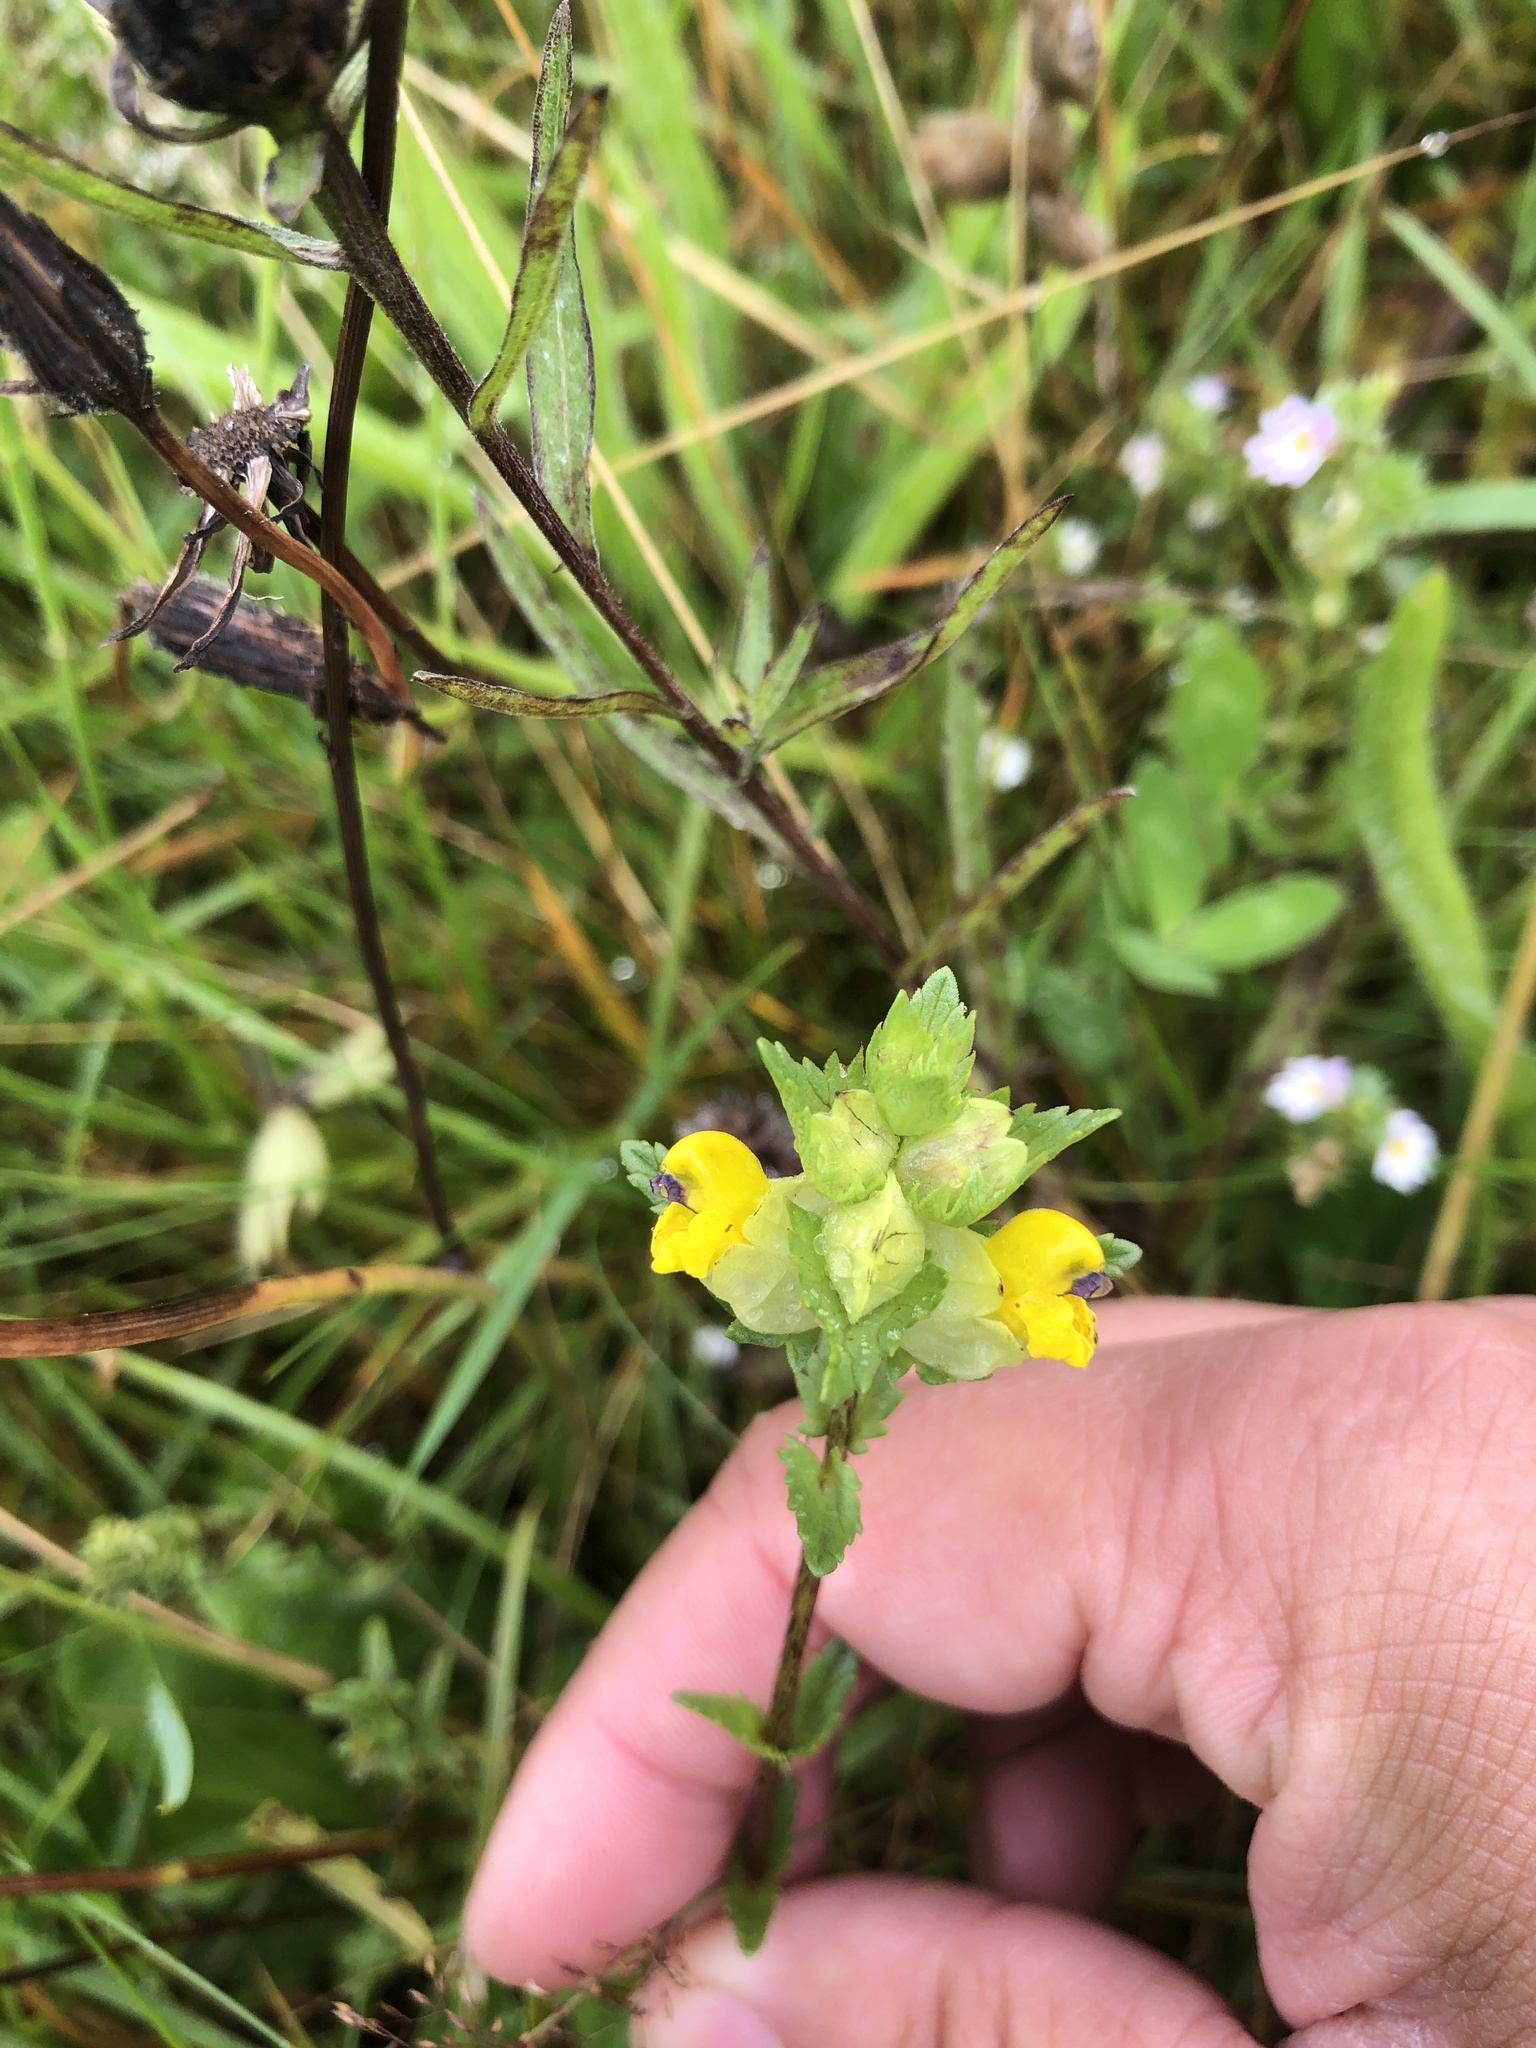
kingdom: Plantae
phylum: Tracheophyta
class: Magnoliopsida
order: Lamiales
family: Orobanchaceae
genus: Rhinanthus
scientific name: Rhinanthus minor
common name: Yellow-rattle
